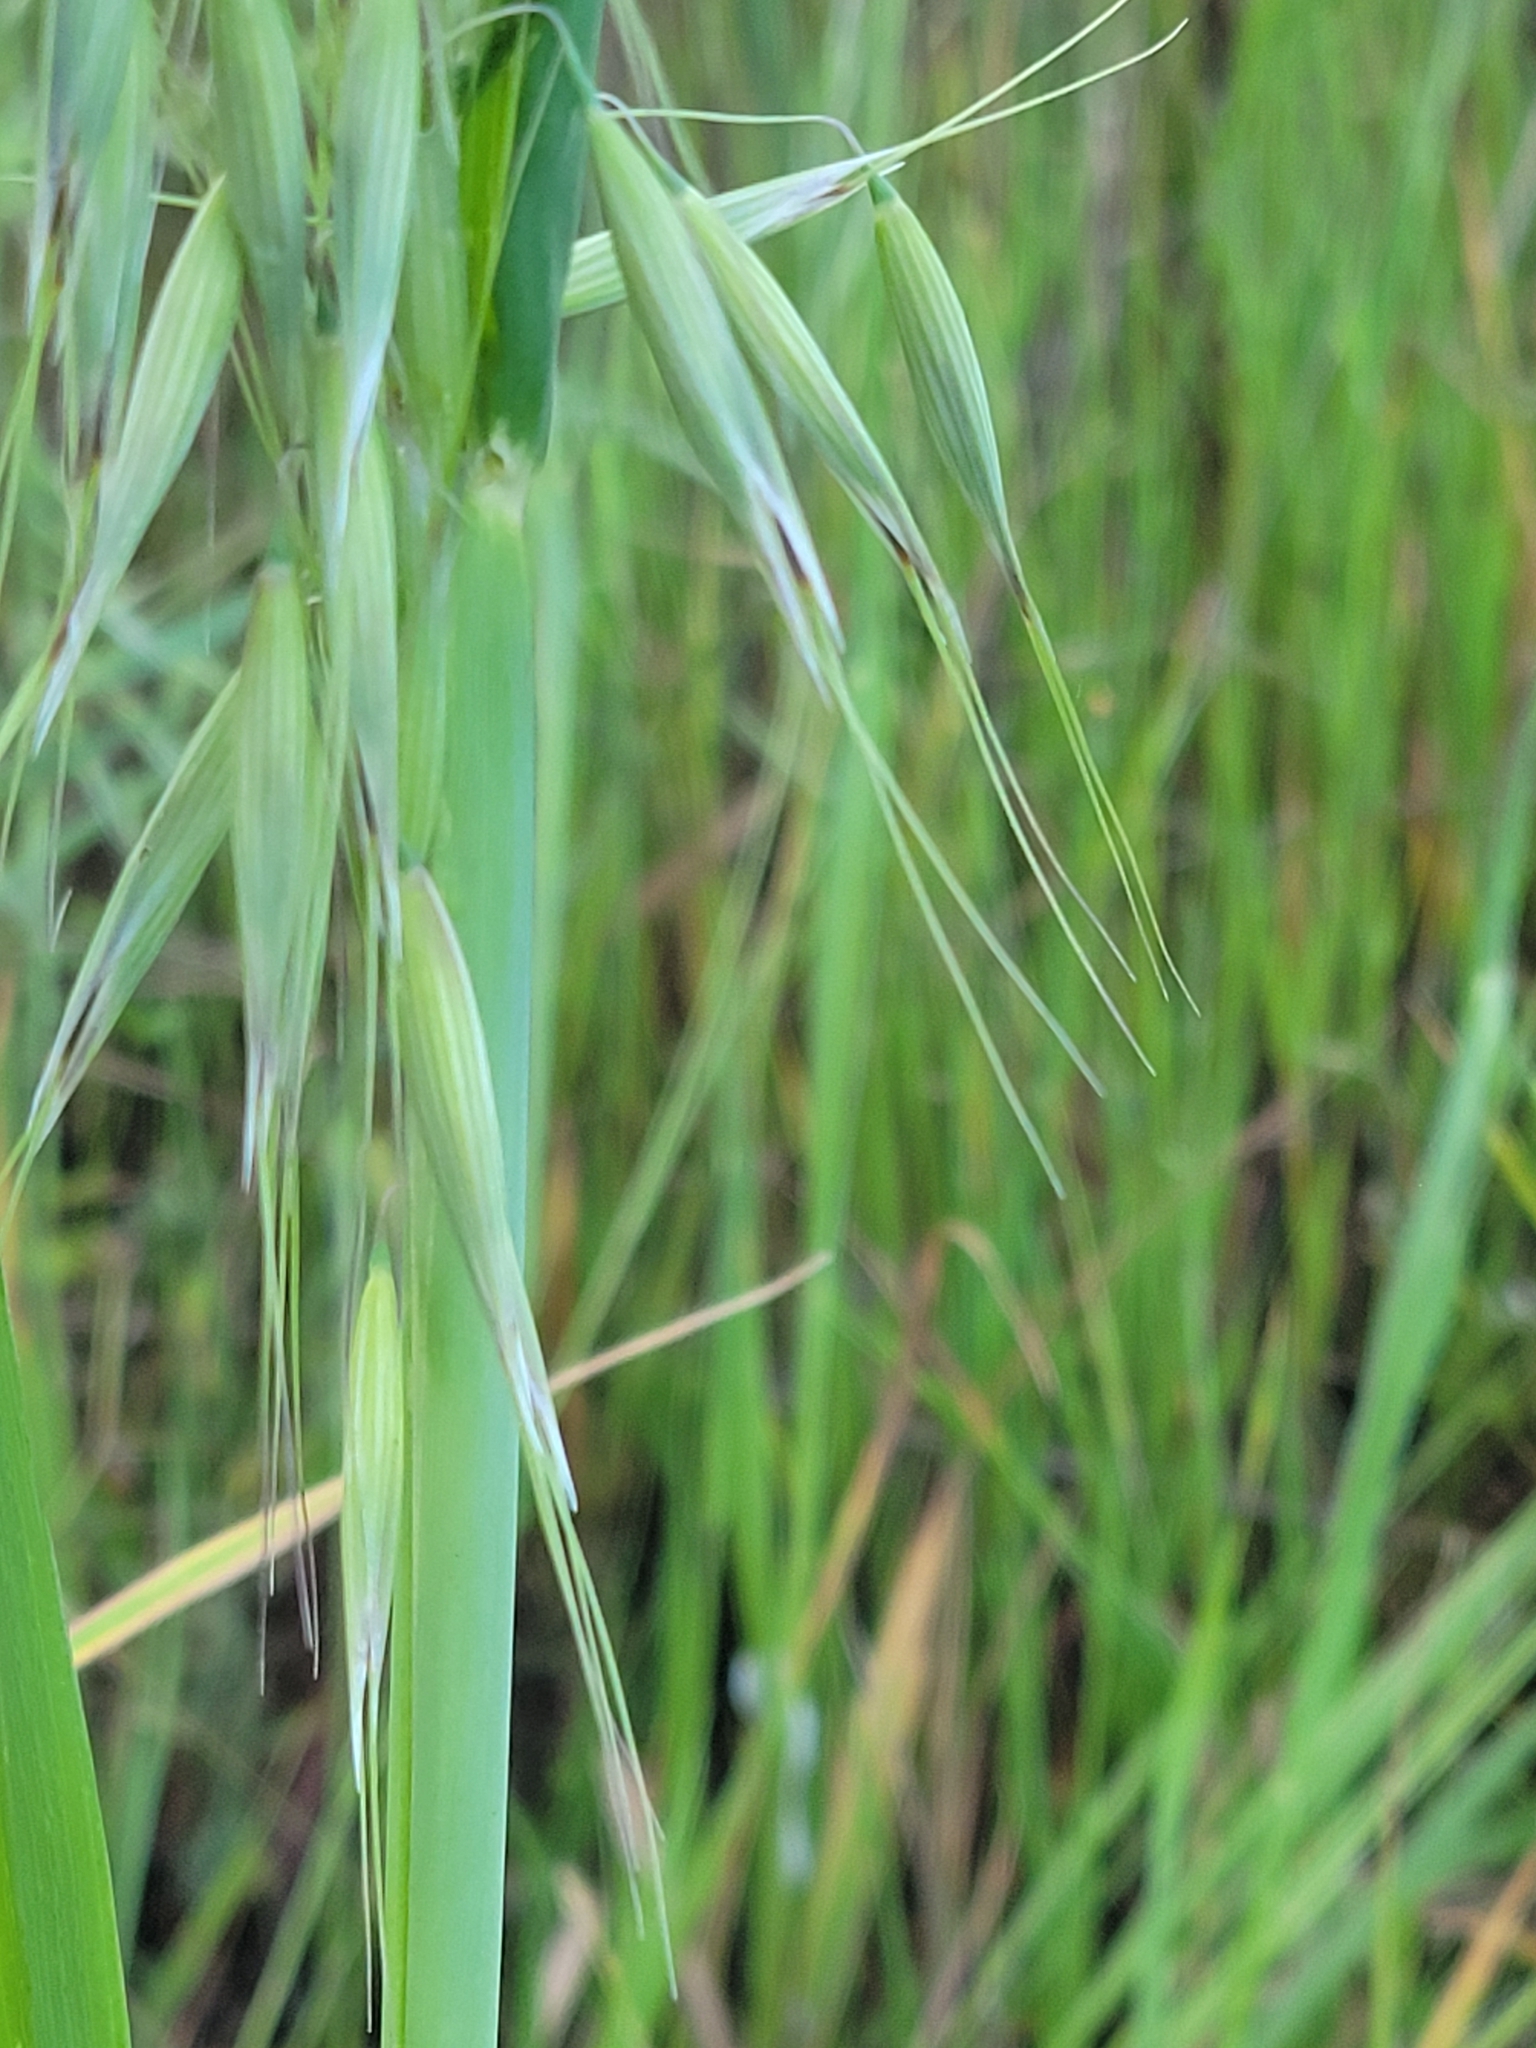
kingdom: Plantae
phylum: Tracheophyta
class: Liliopsida
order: Poales
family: Poaceae
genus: Avena
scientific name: Avena fatua
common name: Wild oat
